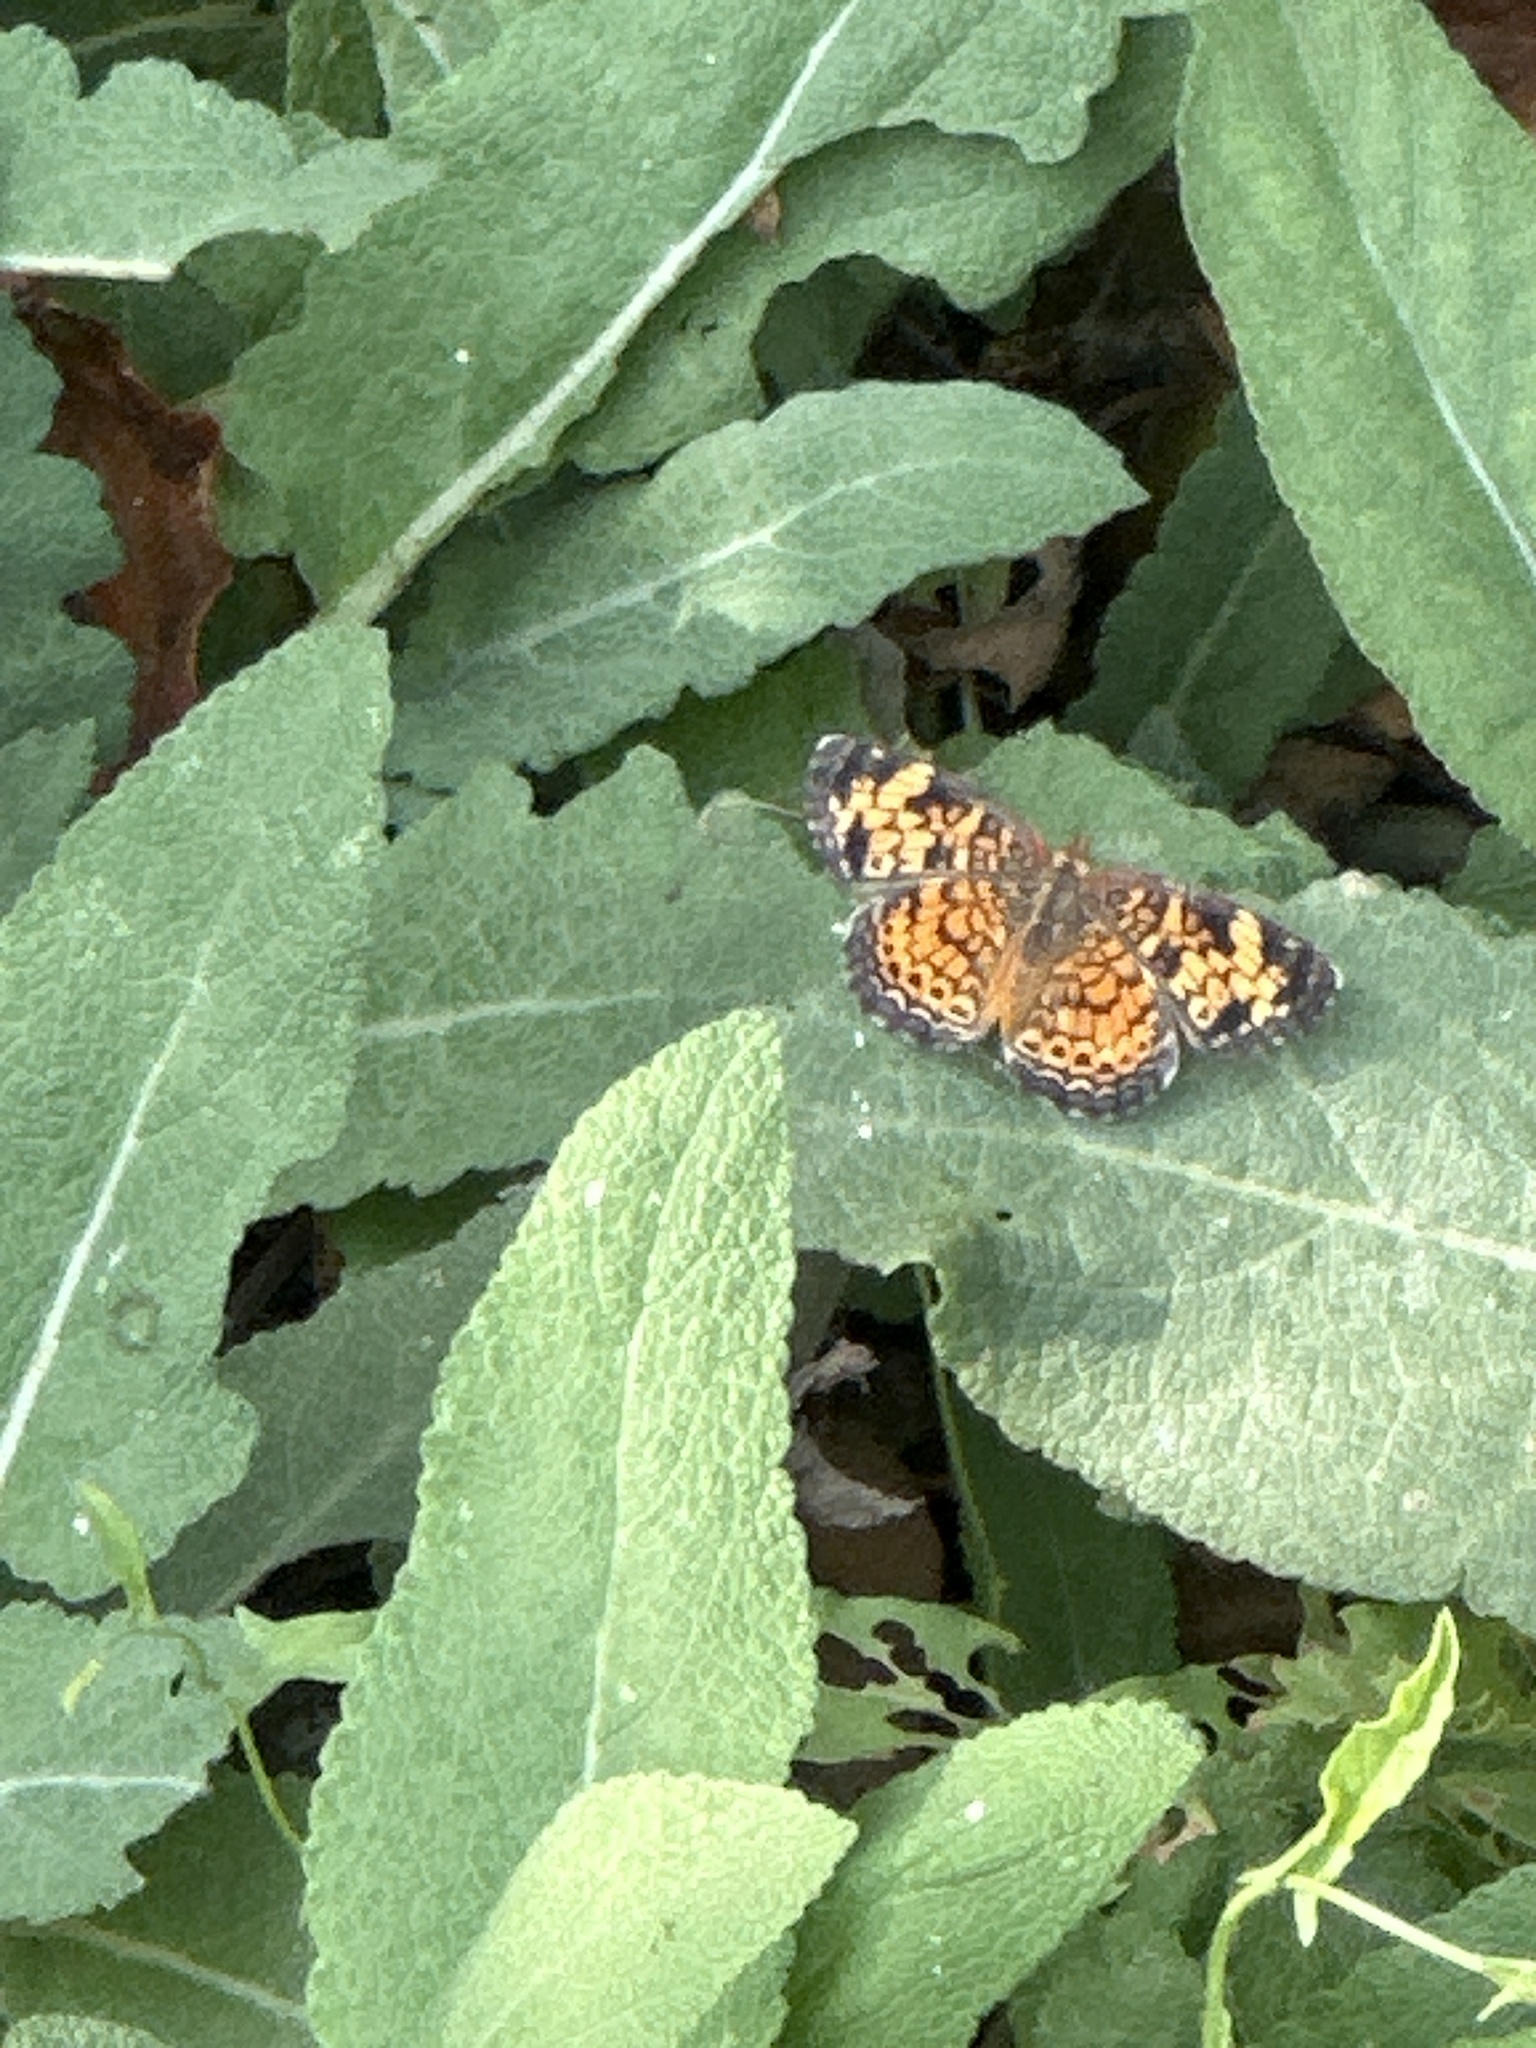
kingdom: Animalia
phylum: Arthropoda
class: Insecta
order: Lepidoptera
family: Nymphalidae
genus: Phyciodes
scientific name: Phyciodes tharos
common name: Pearl crescent
